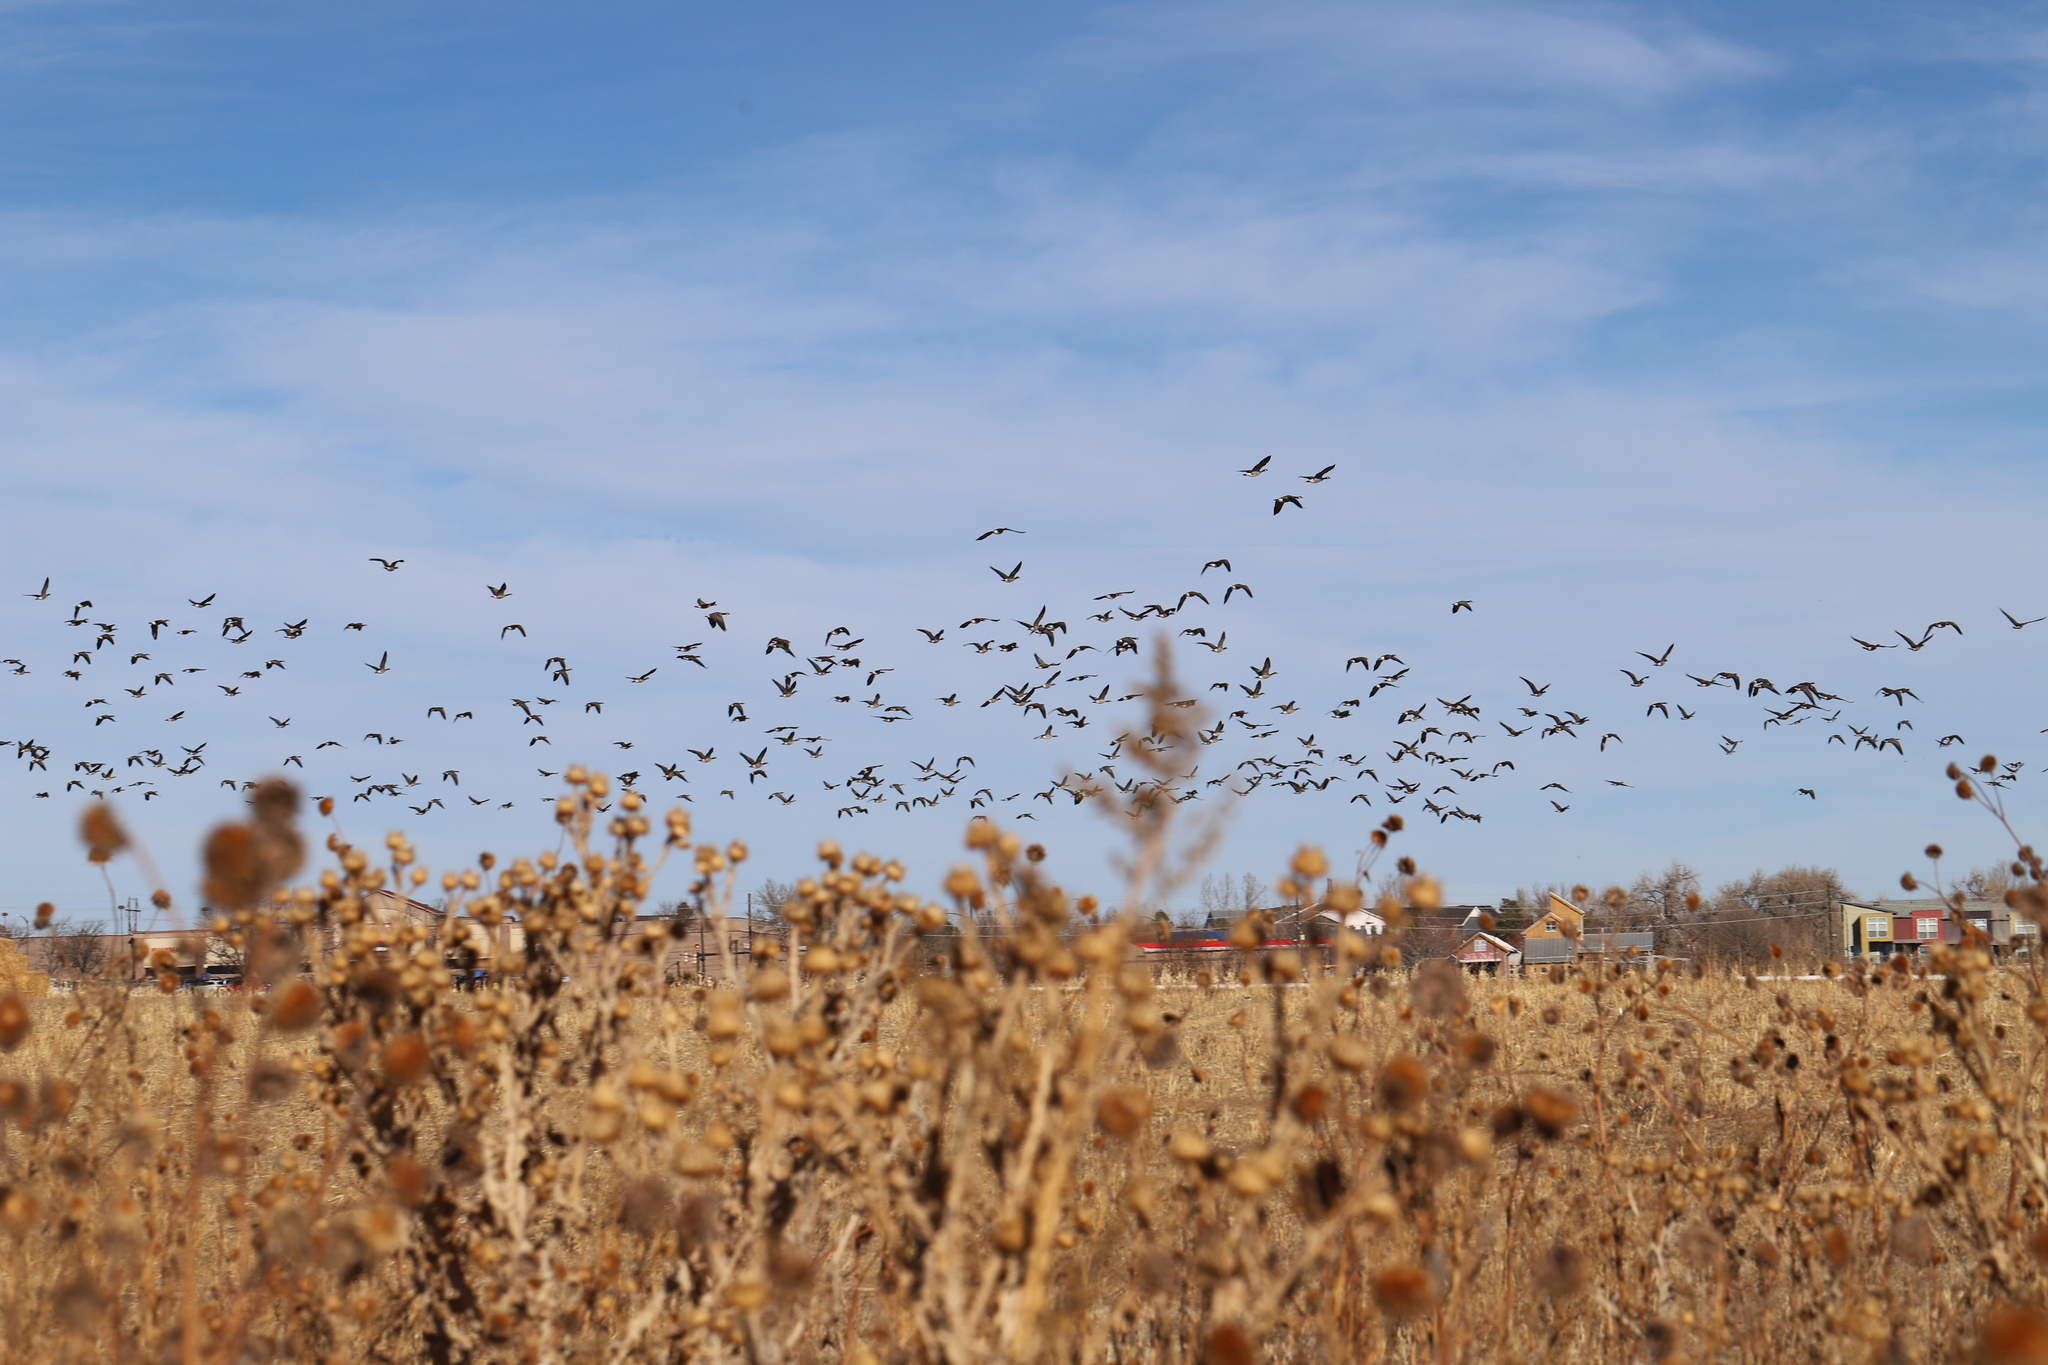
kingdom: Animalia
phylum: Chordata
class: Aves
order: Anseriformes
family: Anatidae
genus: Branta
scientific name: Branta canadensis
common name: Canada goose
